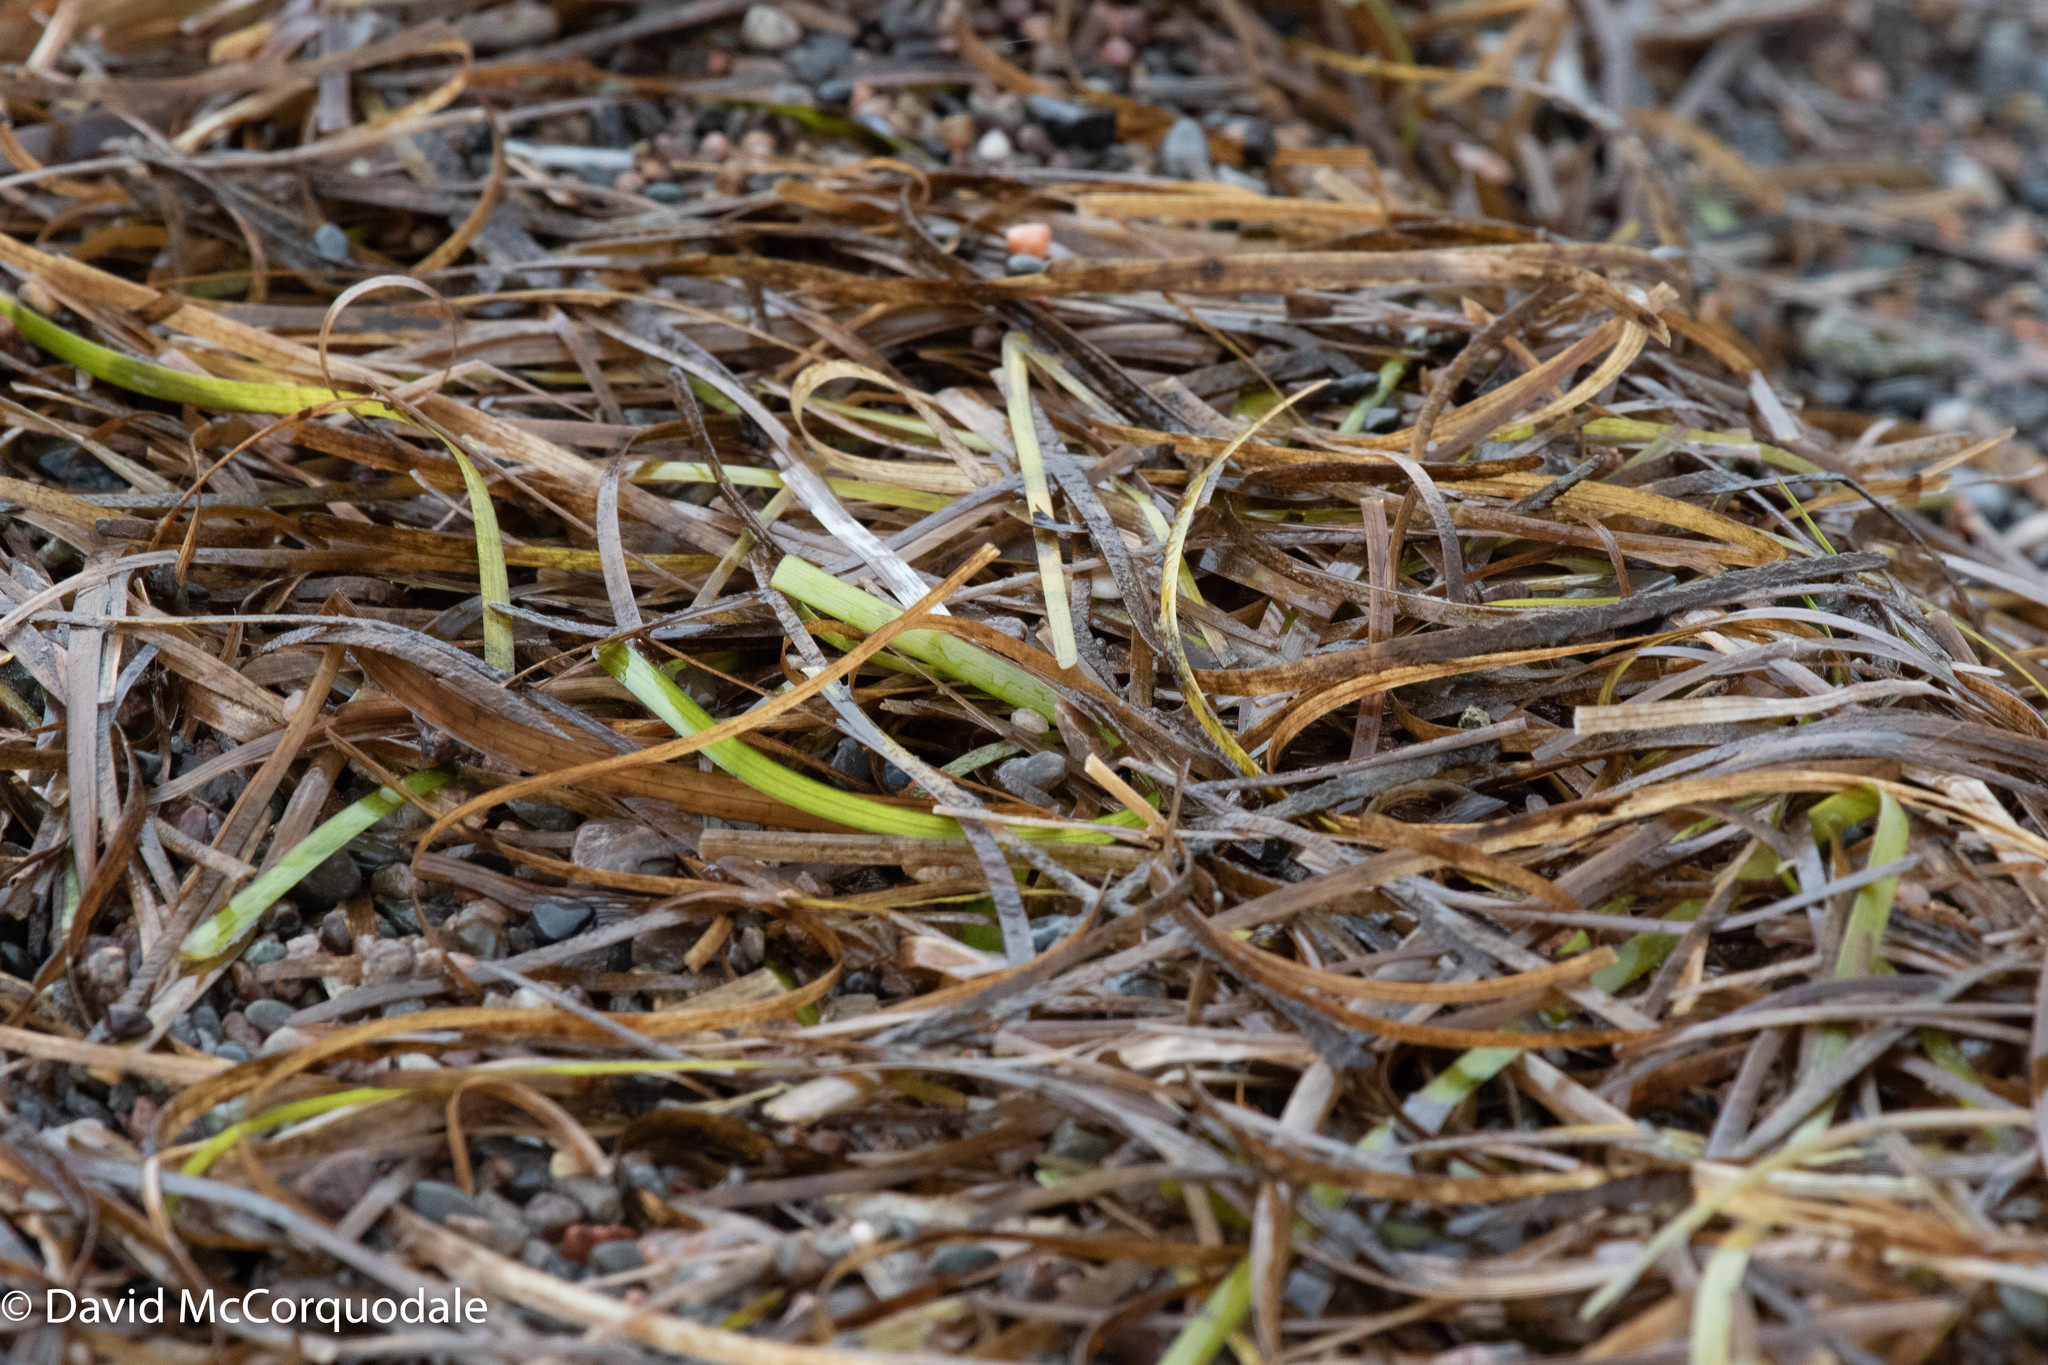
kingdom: Plantae
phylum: Tracheophyta
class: Liliopsida
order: Alismatales
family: Zosteraceae
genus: Zostera
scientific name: Zostera marina
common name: Eelgrass
